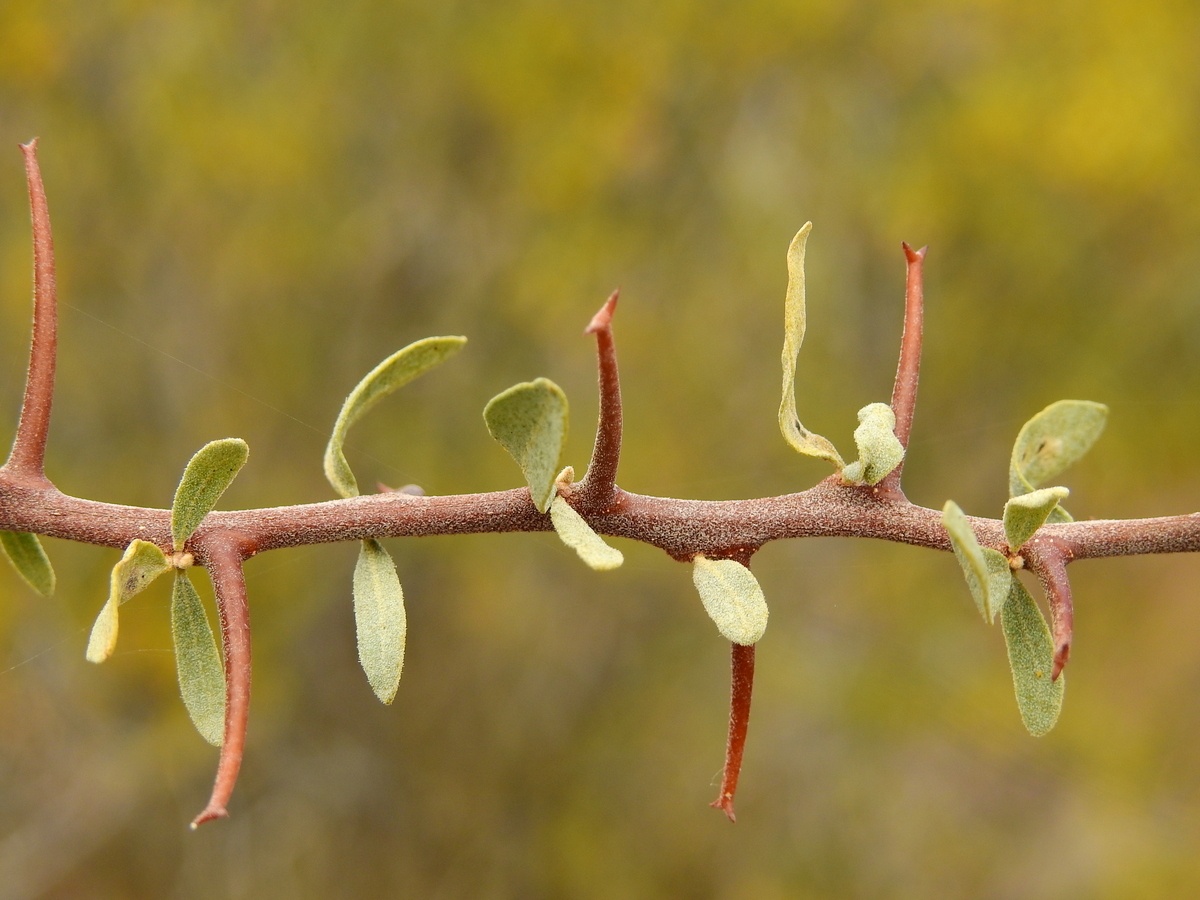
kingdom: Plantae
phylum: Tracheophyta
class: Magnoliopsida
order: Caryophyllales
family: Nyctaginaceae
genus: Bougainvillea
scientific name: Bougainvillea spinosa
